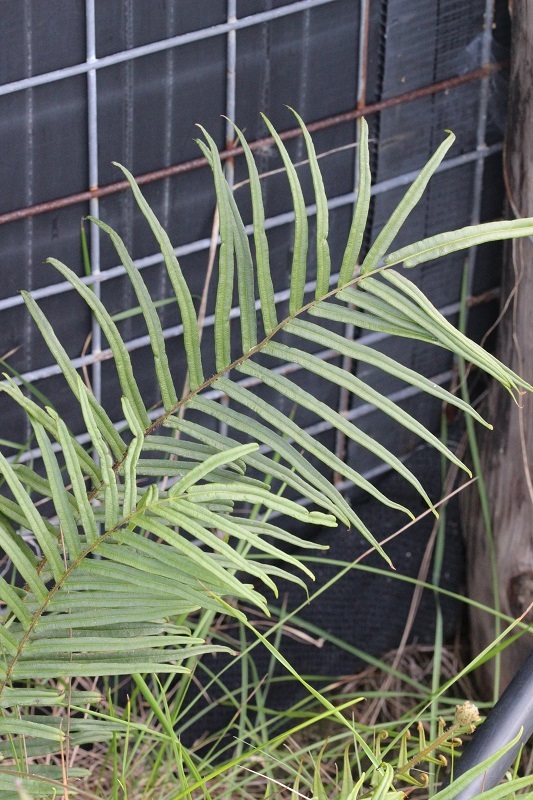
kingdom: Plantae
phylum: Tracheophyta
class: Polypodiopsida
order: Polypodiales
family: Pteridaceae
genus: Pteris
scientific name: Pteris vittata
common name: Ladder brake
